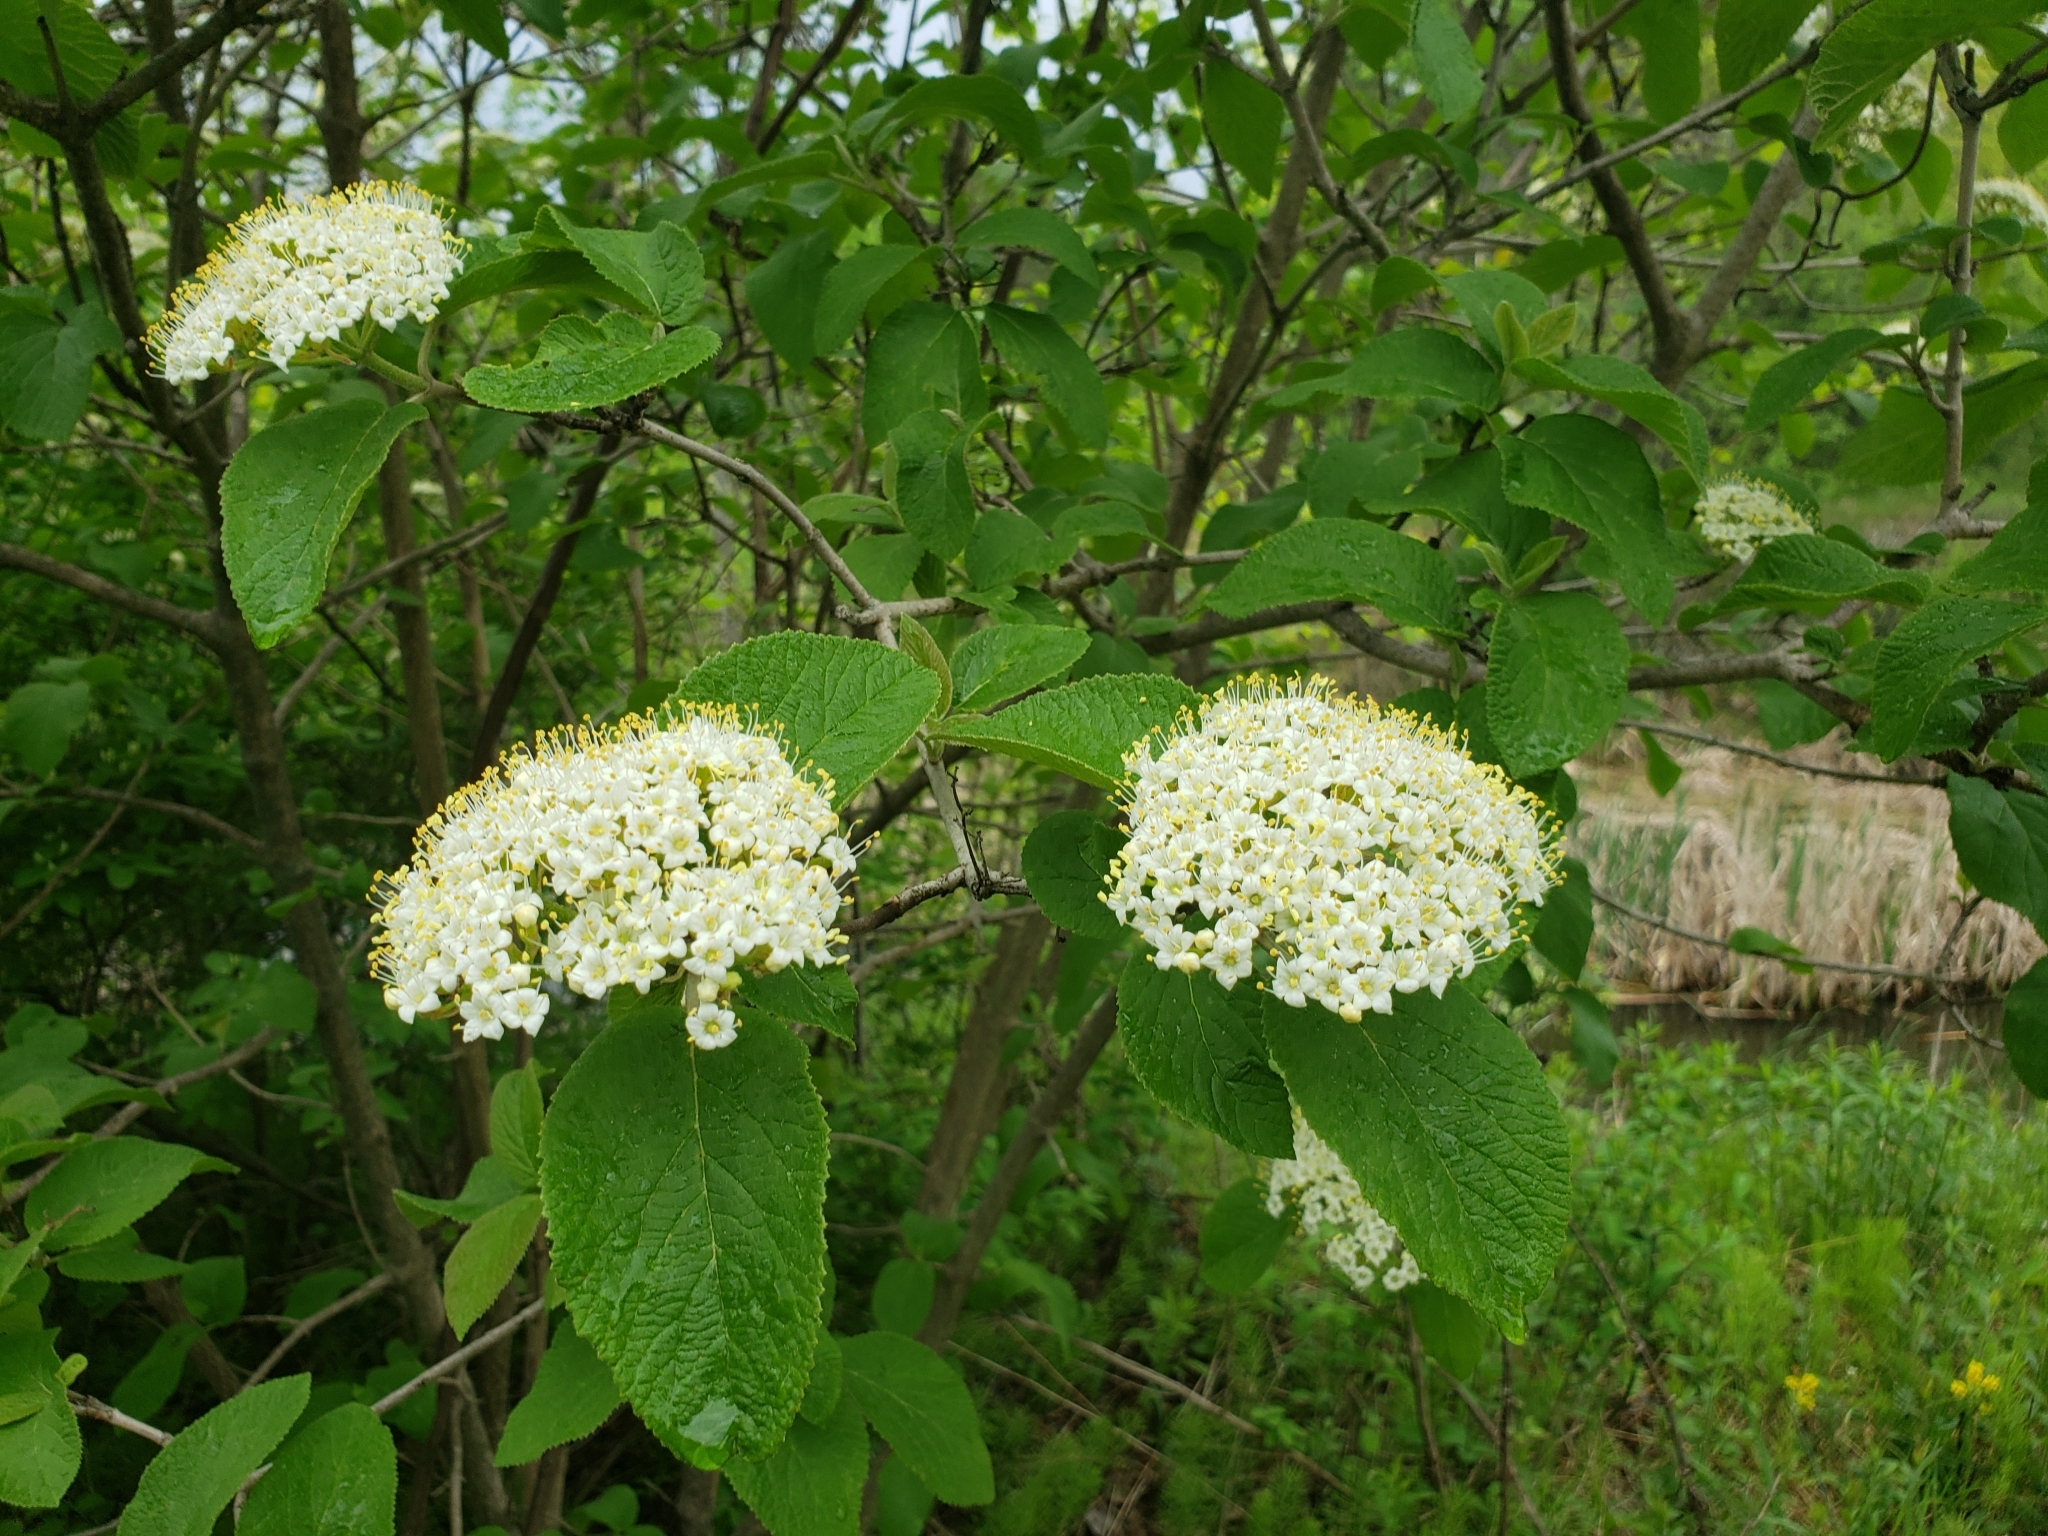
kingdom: Plantae
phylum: Tracheophyta
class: Magnoliopsida
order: Dipsacales
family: Viburnaceae
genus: Viburnum
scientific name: Viburnum lantana
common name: Wayfaring tree
